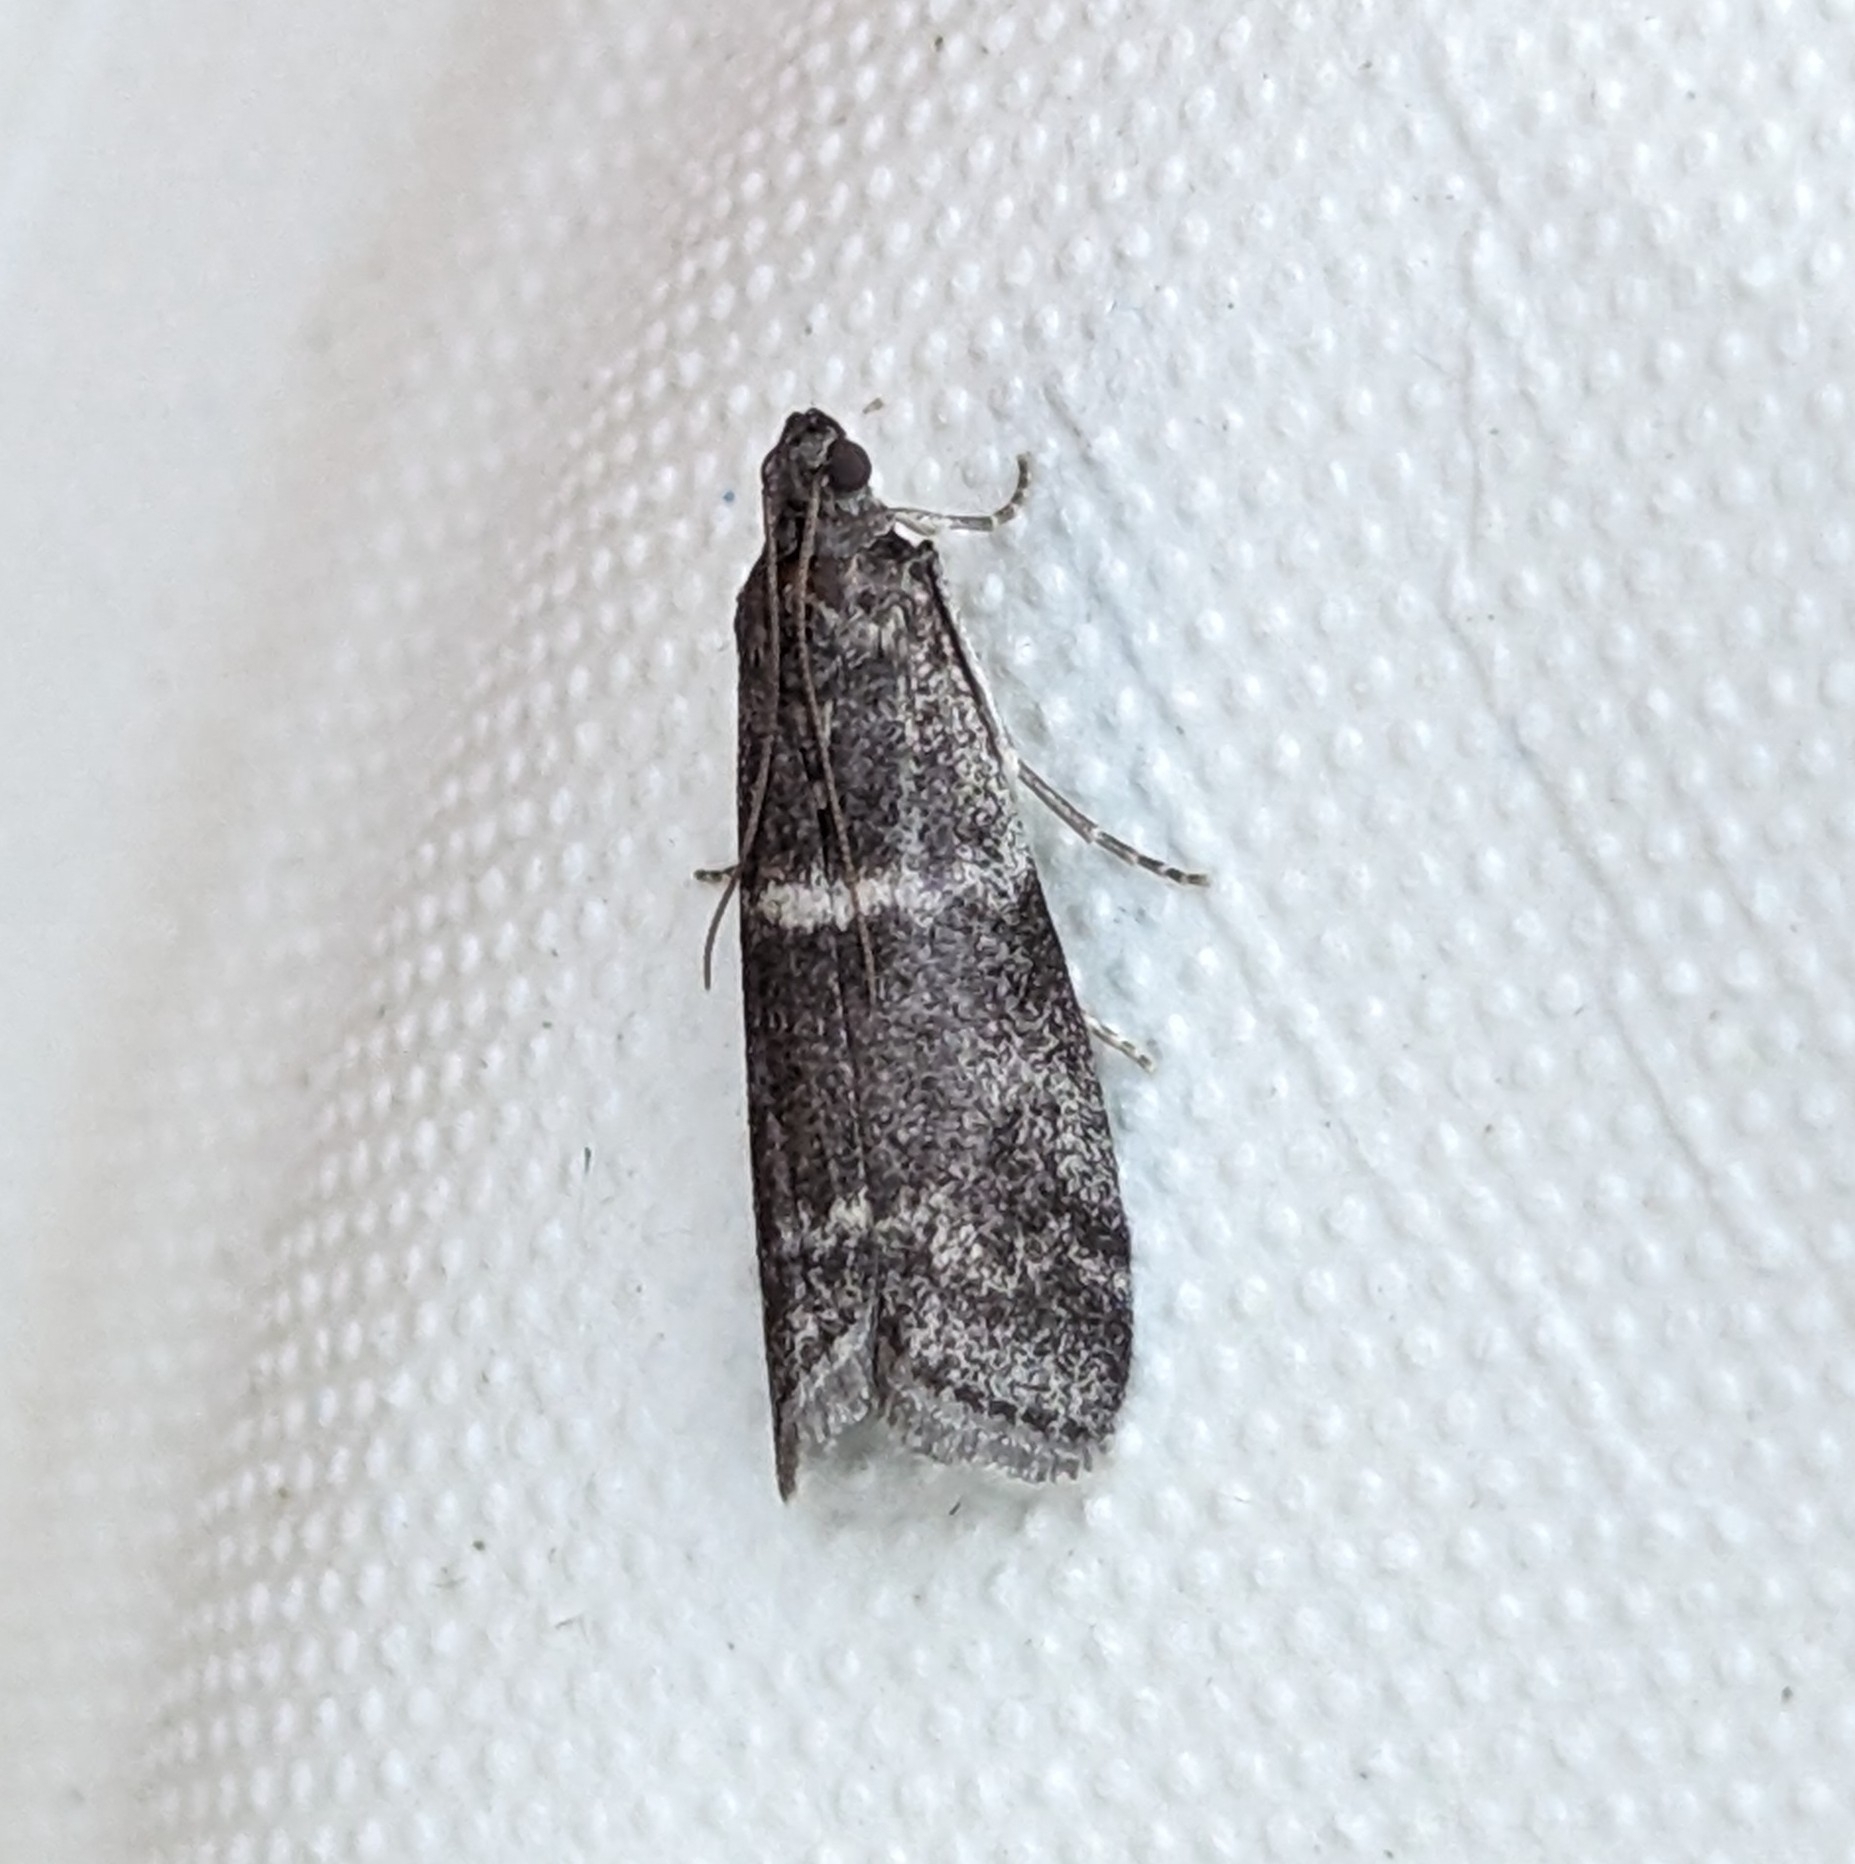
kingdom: Animalia
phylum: Arthropoda
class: Insecta
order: Lepidoptera
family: Pyralidae
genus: Apomyelois
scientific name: Apomyelois bistriatella
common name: Heath knot-horn
